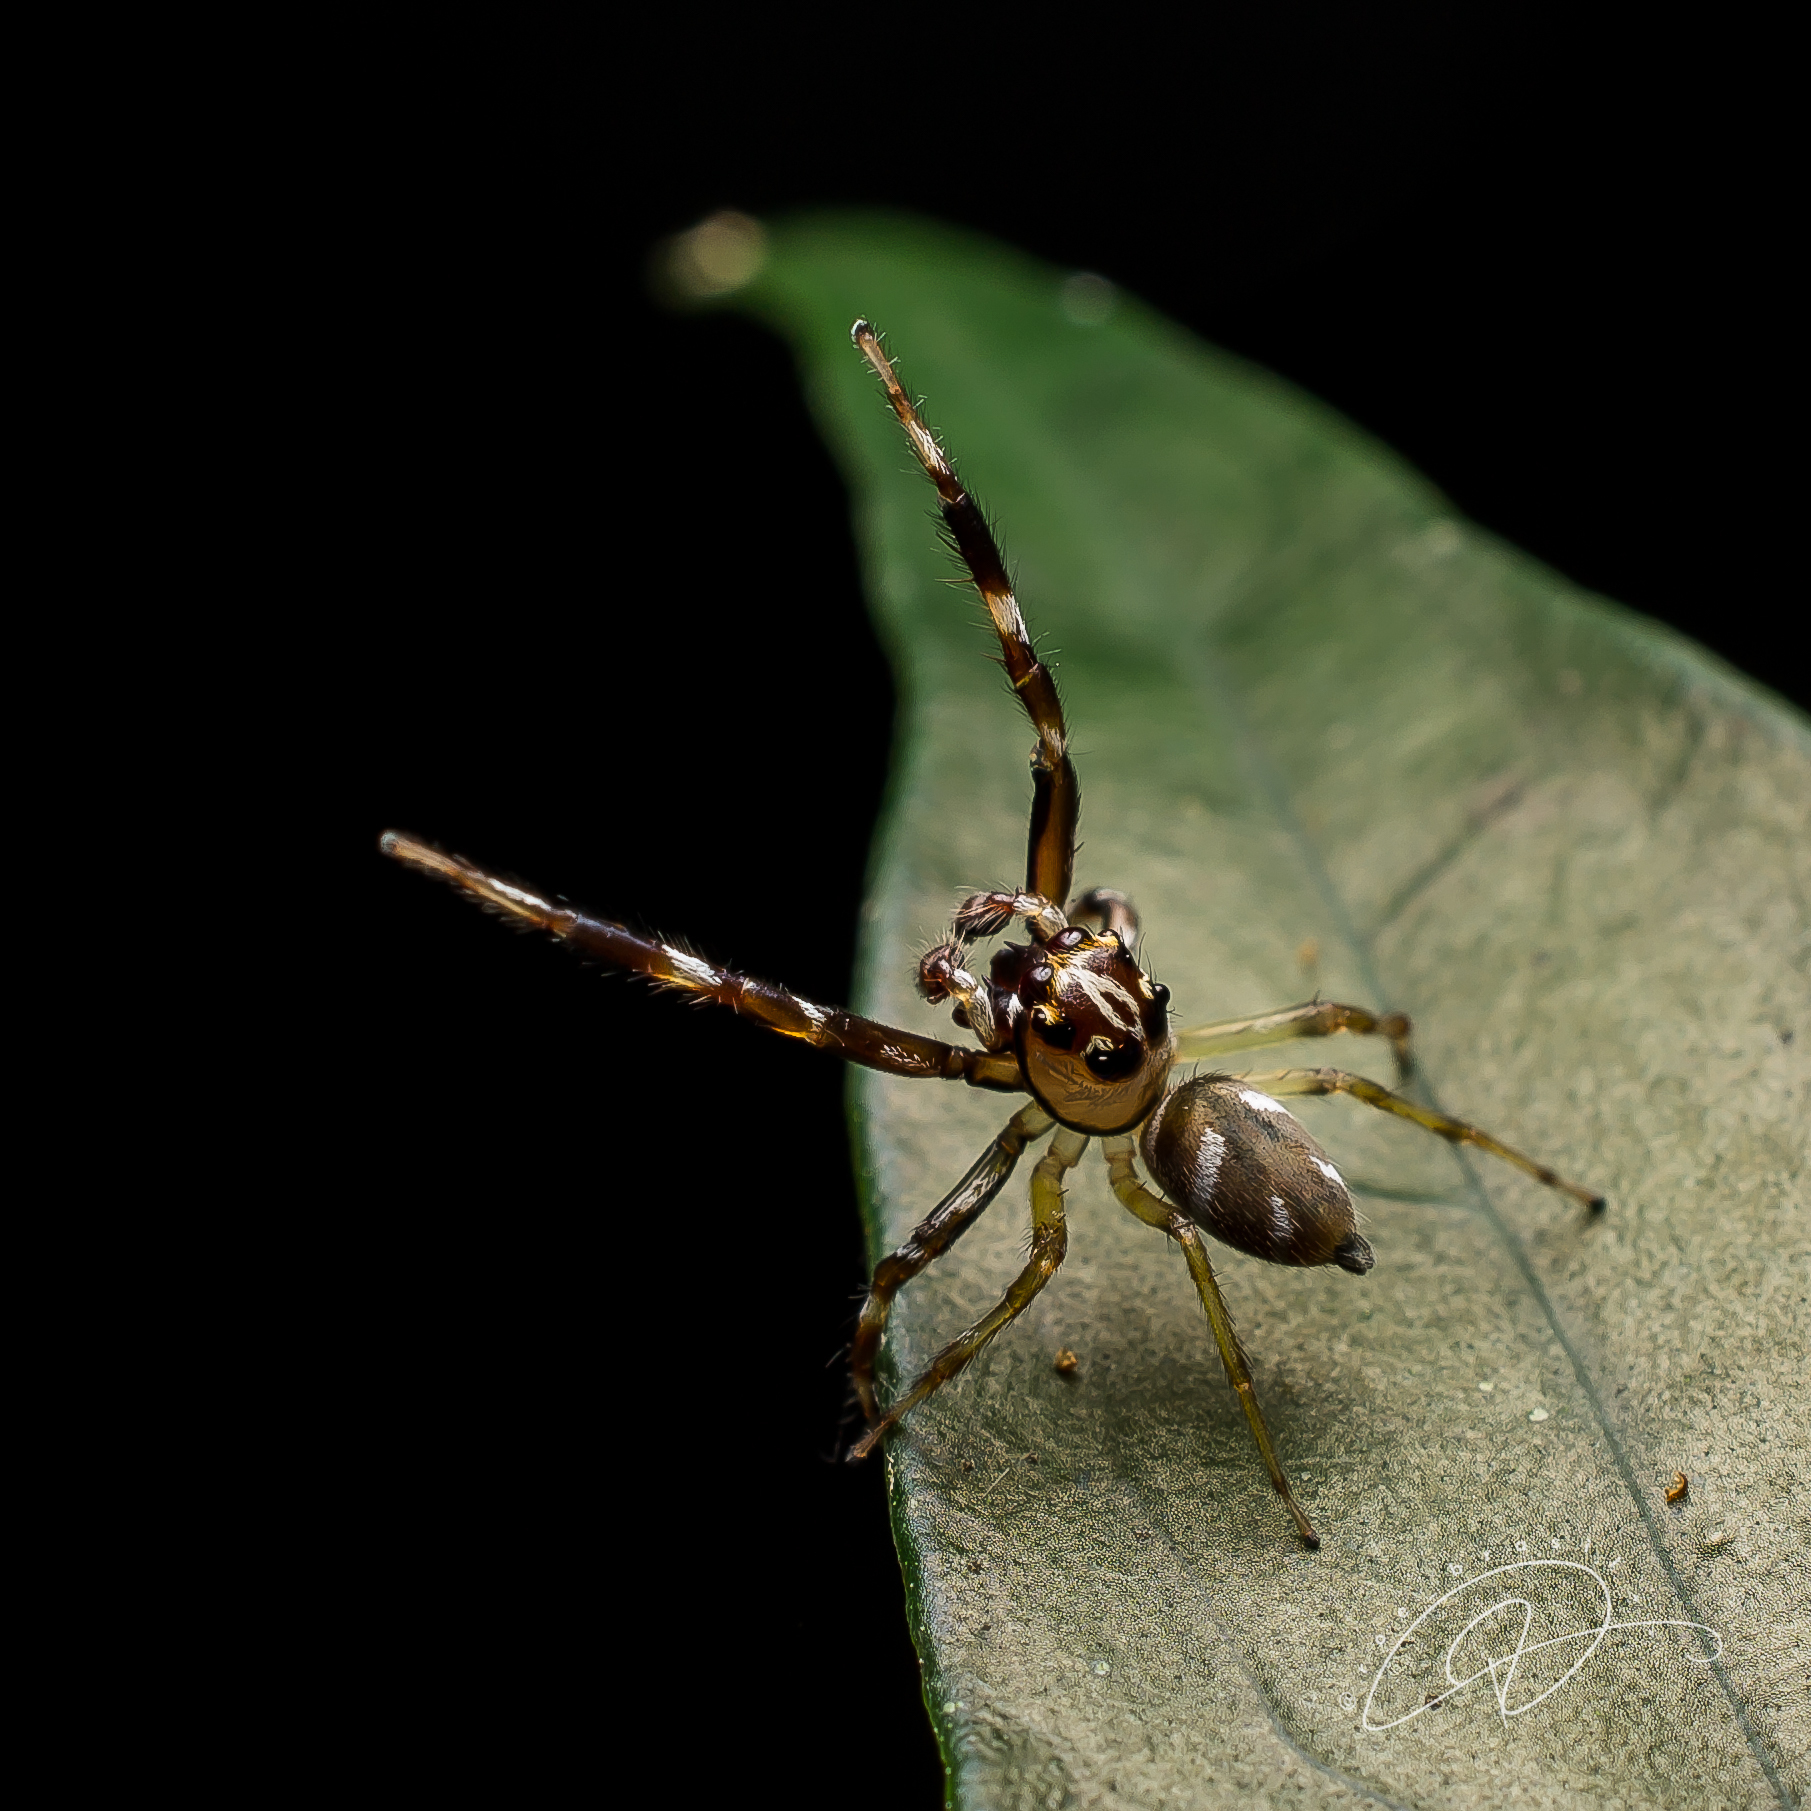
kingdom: Animalia
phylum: Arthropoda
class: Arachnida
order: Araneae
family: Salticidae
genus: Noegus
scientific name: Noegus bidens
